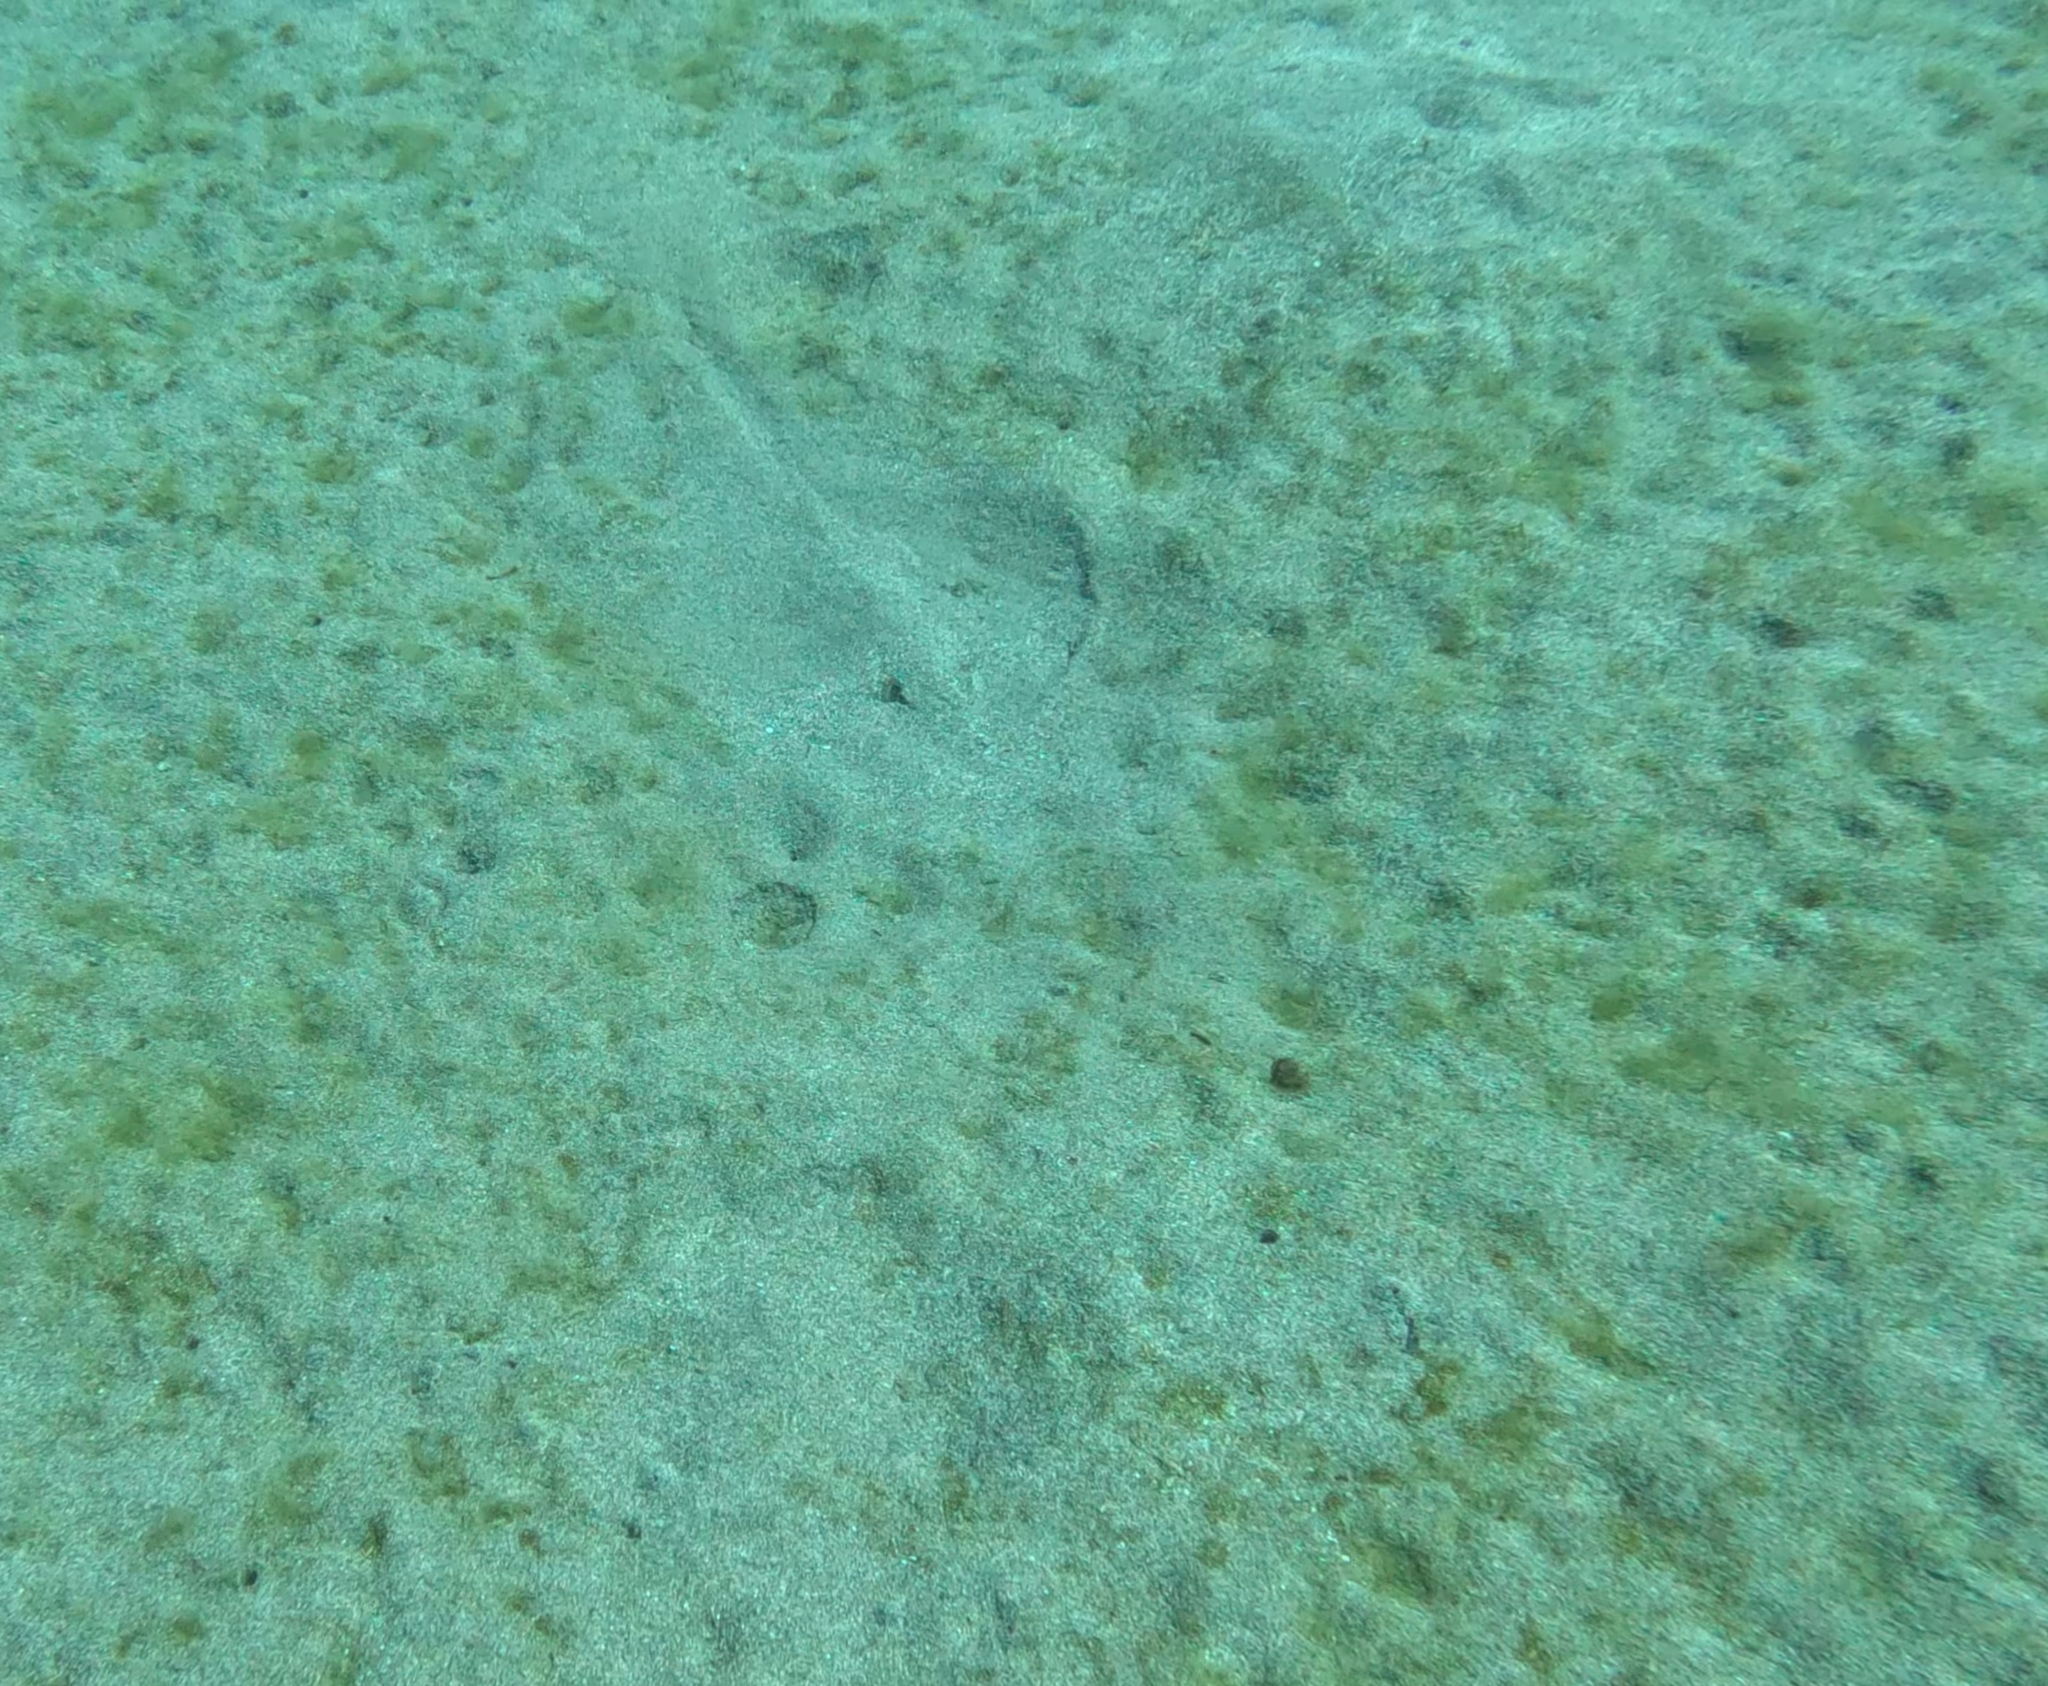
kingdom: Animalia
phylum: Chordata
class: Elasmobranchii
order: Myliobatiformes
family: Dasyatidae
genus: Dasyatis
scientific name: Dasyatis pastinaca
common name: Common stingray
